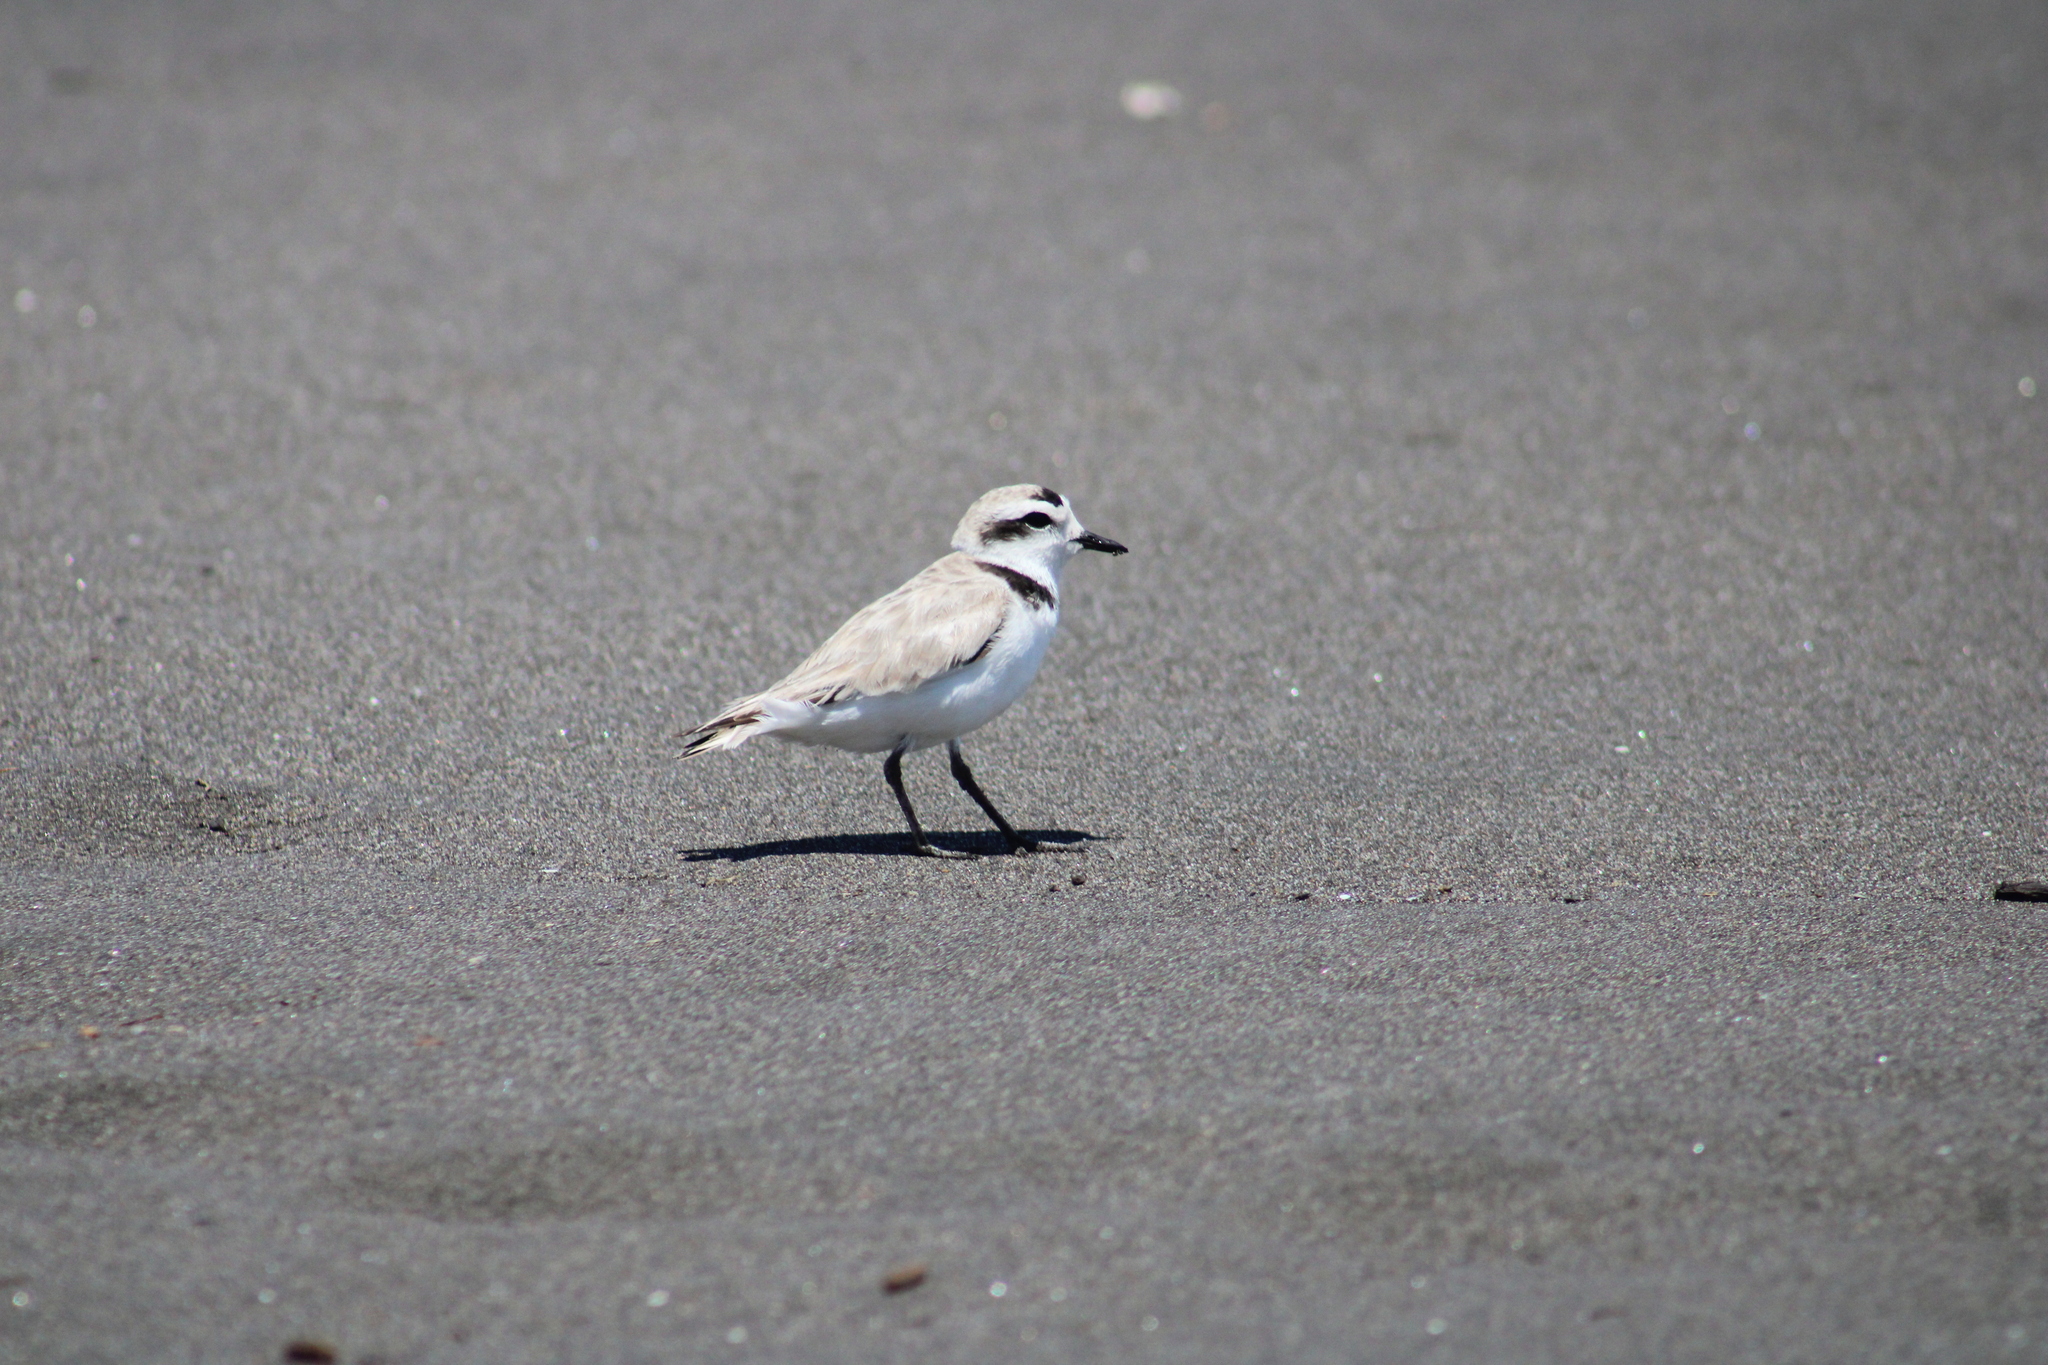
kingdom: Animalia
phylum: Chordata
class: Aves
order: Charadriiformes
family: Charadriidae
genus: Anarhynchus
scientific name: Anarhynchus
